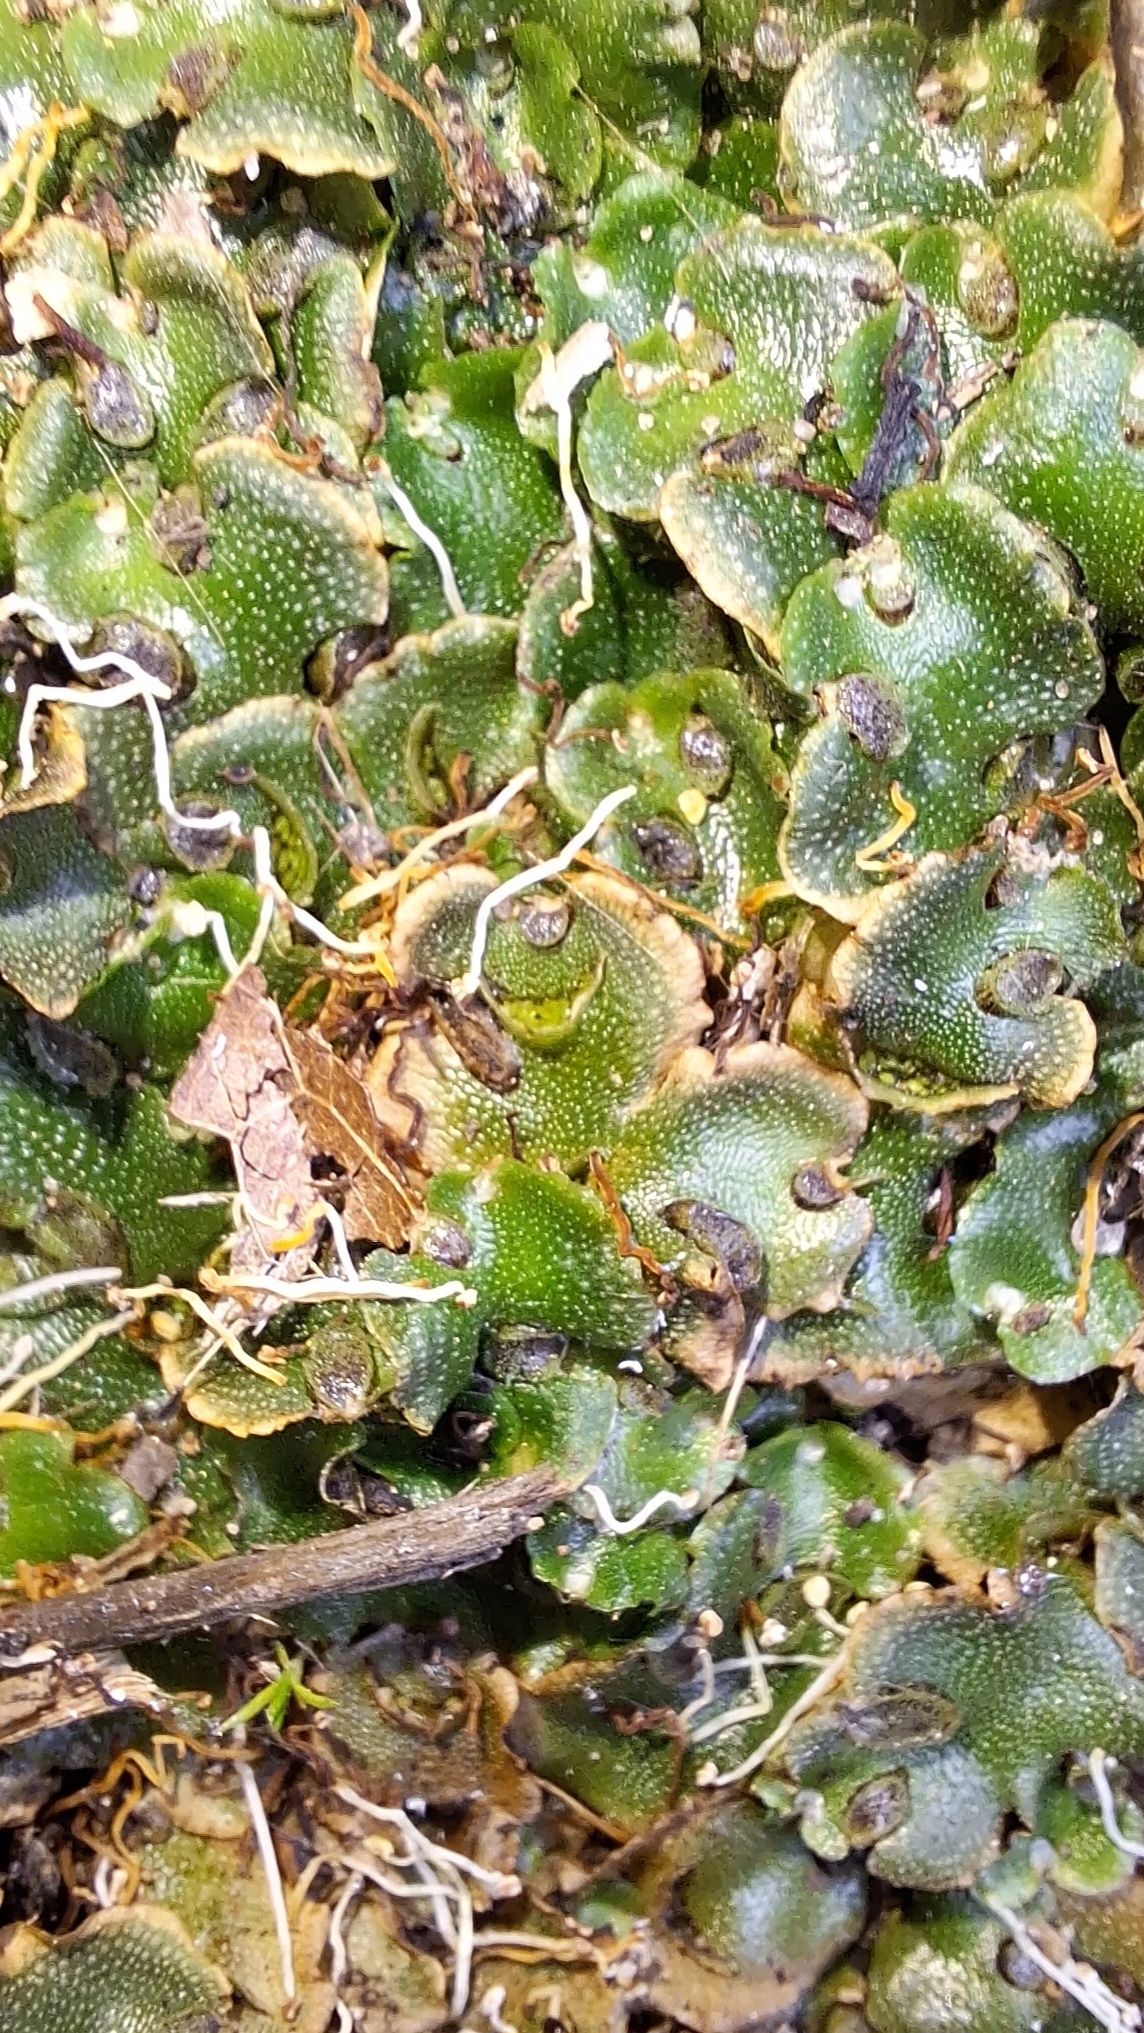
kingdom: Plantae
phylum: Marchantiophyta
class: Marchantiopsida
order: Lunulariales
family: Lunulariaceae
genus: Lunularia
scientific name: Lunularia cruciata
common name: Crescent-cup liverwort
